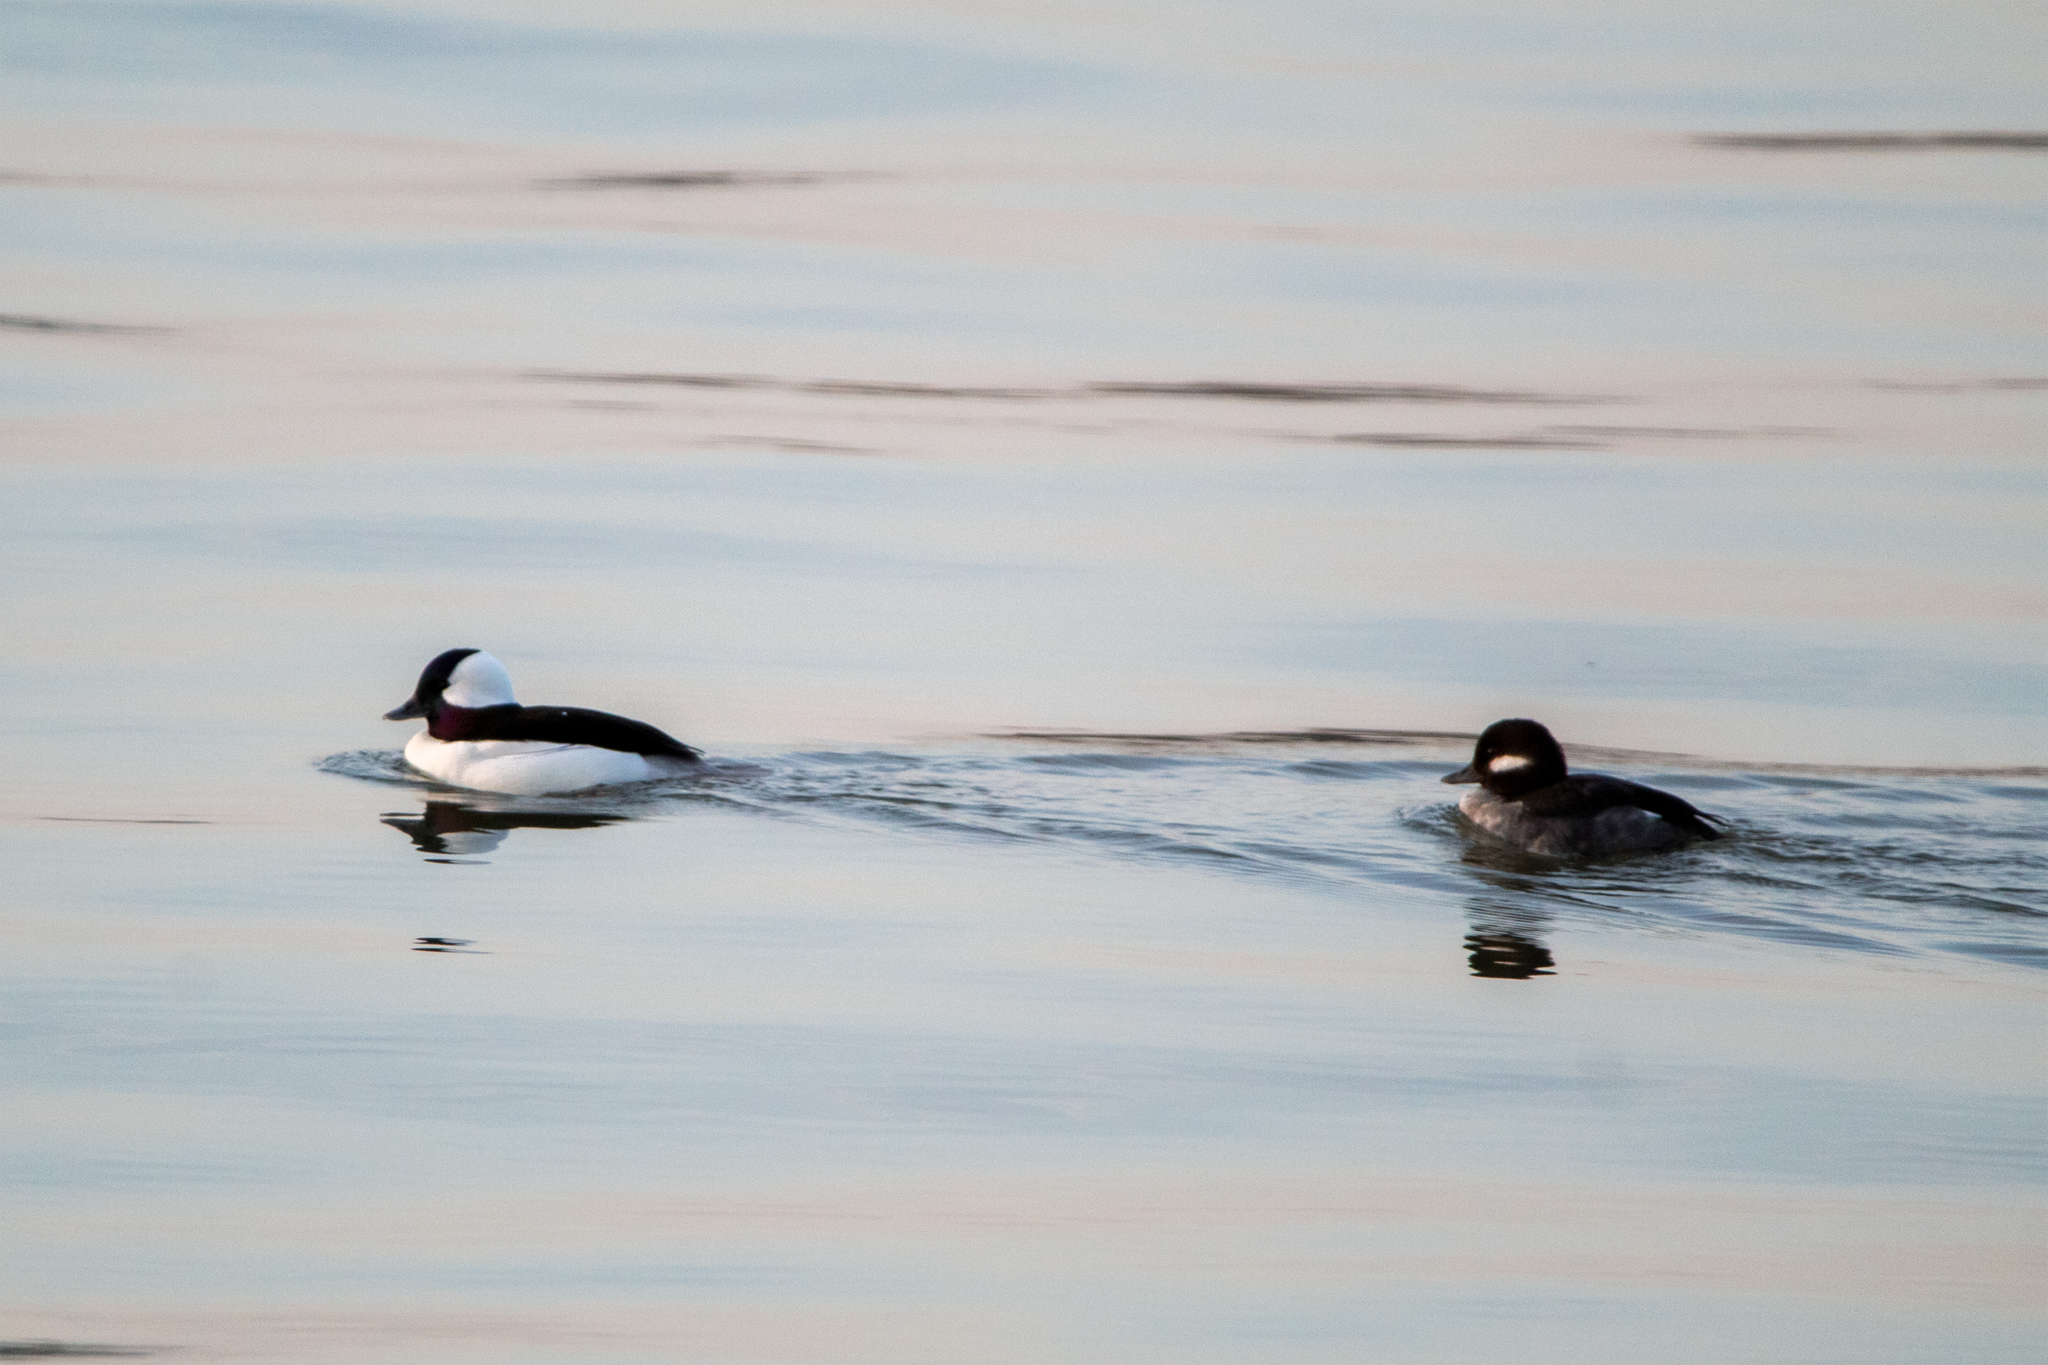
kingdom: Animalia
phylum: Chordata
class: Aves
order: Anseriformes
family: Anatidae
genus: Bucephala
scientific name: Bucephala albeola
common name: Bufflehead
